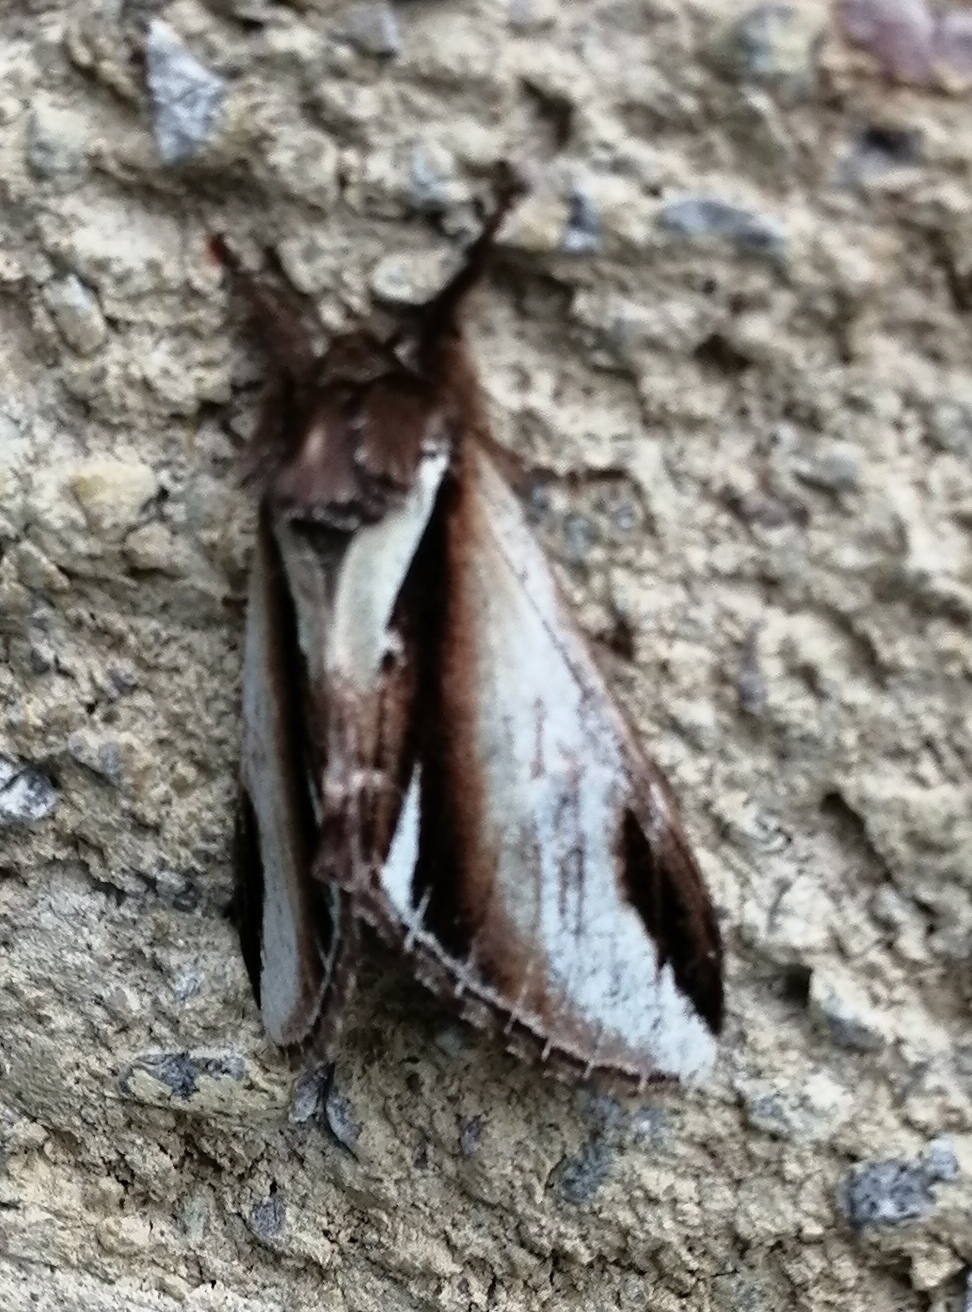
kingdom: Animalia
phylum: Arthropoda
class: Insecta
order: Lepidoptera
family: Notodontidae
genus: Pheosia
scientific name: Pheosia gnoma
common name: Lesser swallow prominent
